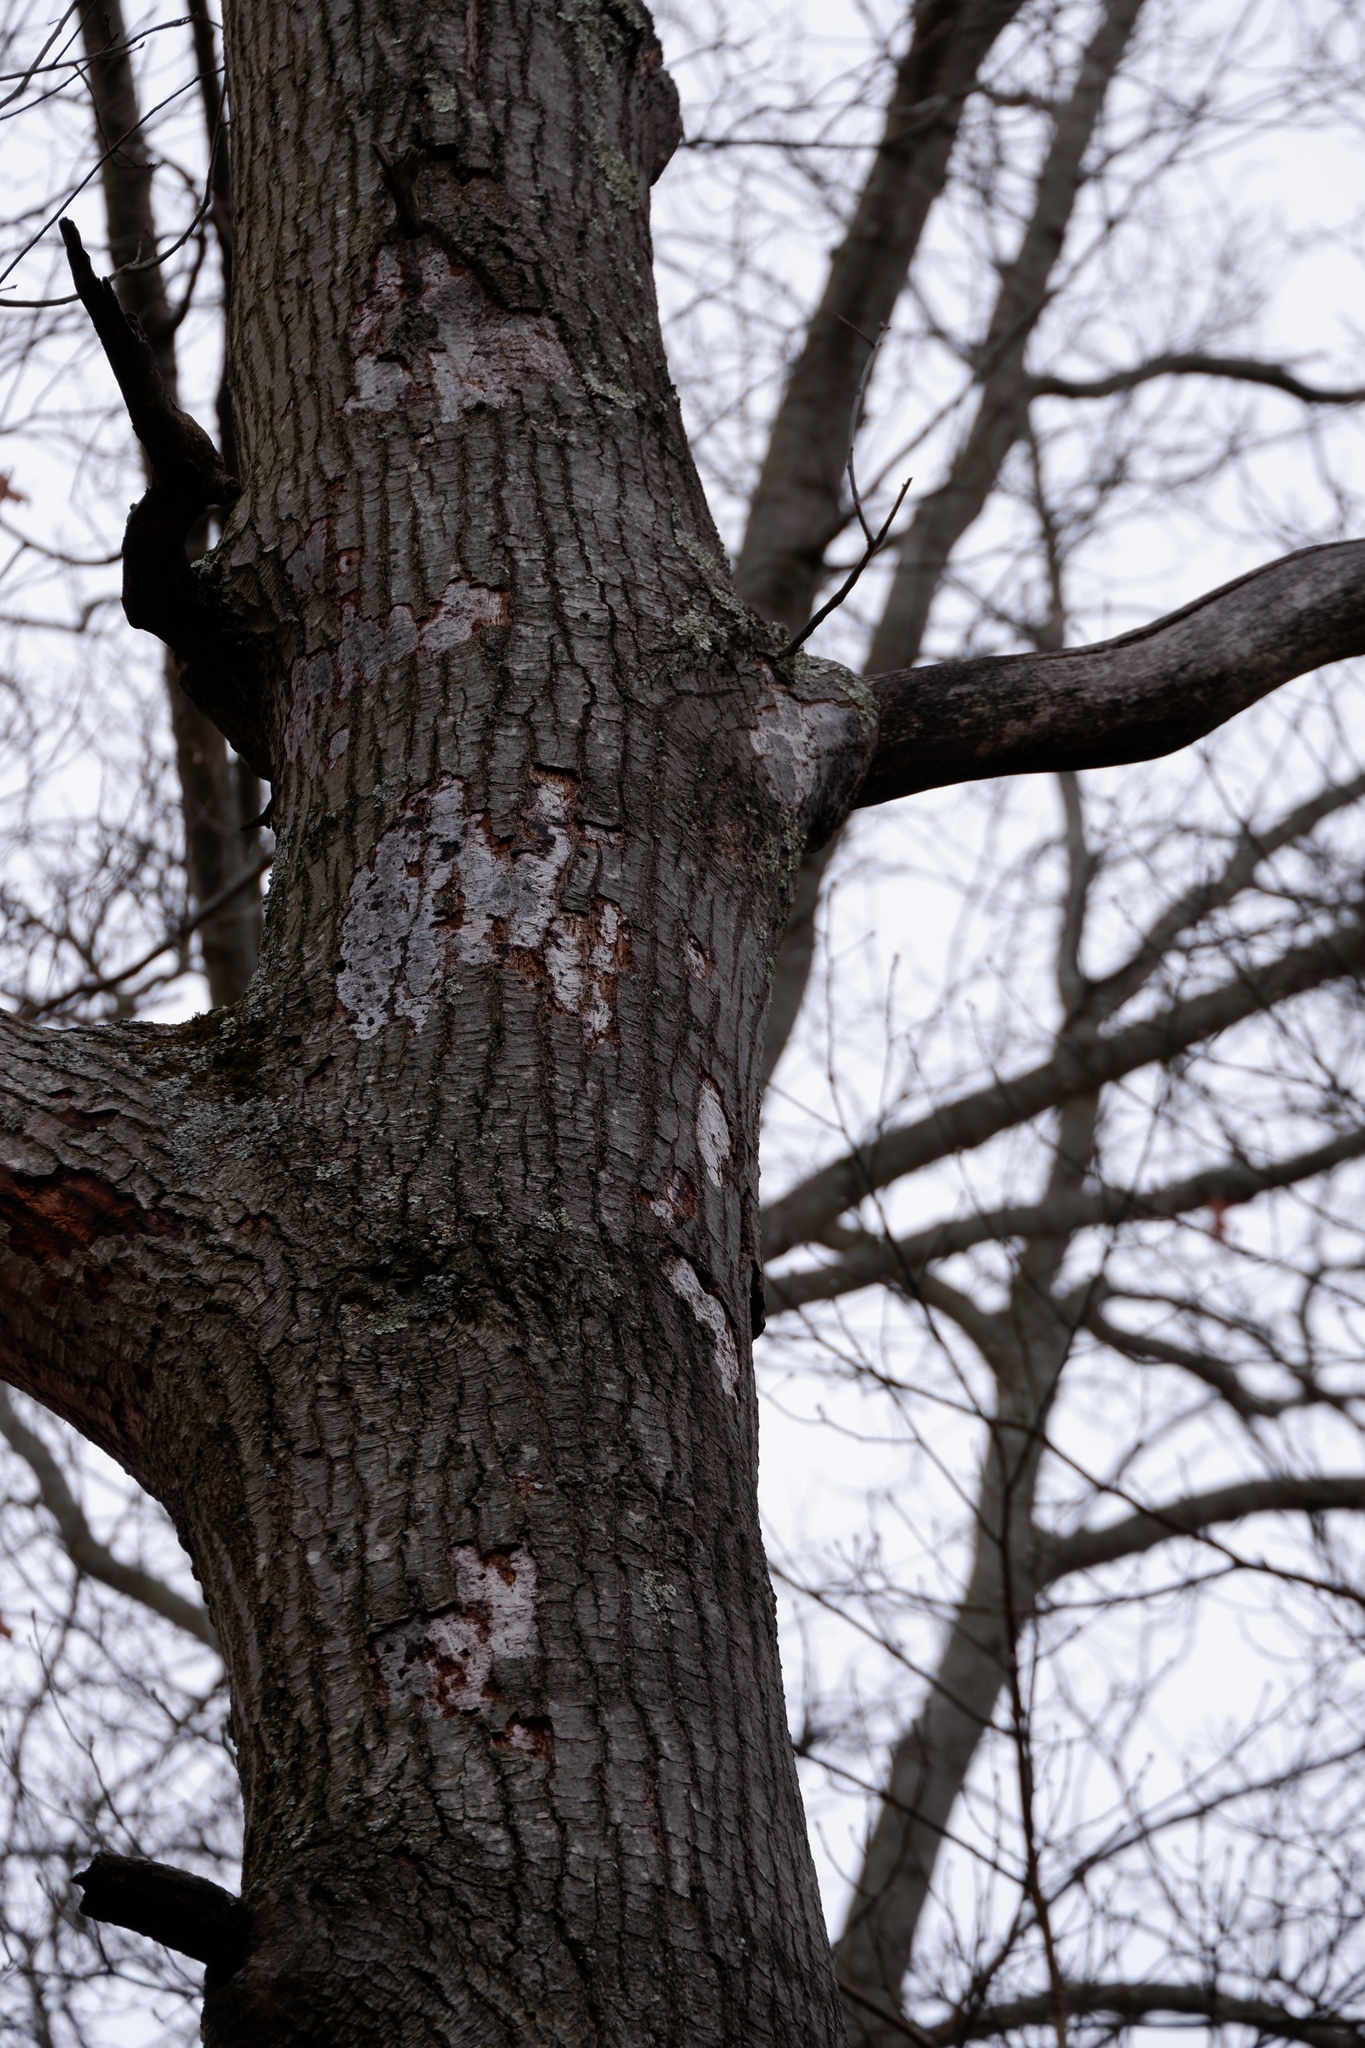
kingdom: Fungi
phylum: Ascomycota
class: Sordariomycetes
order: Xylariales
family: Graphostromataceae
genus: Biscogniauxia
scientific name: Biscogniauxia atropunctata
